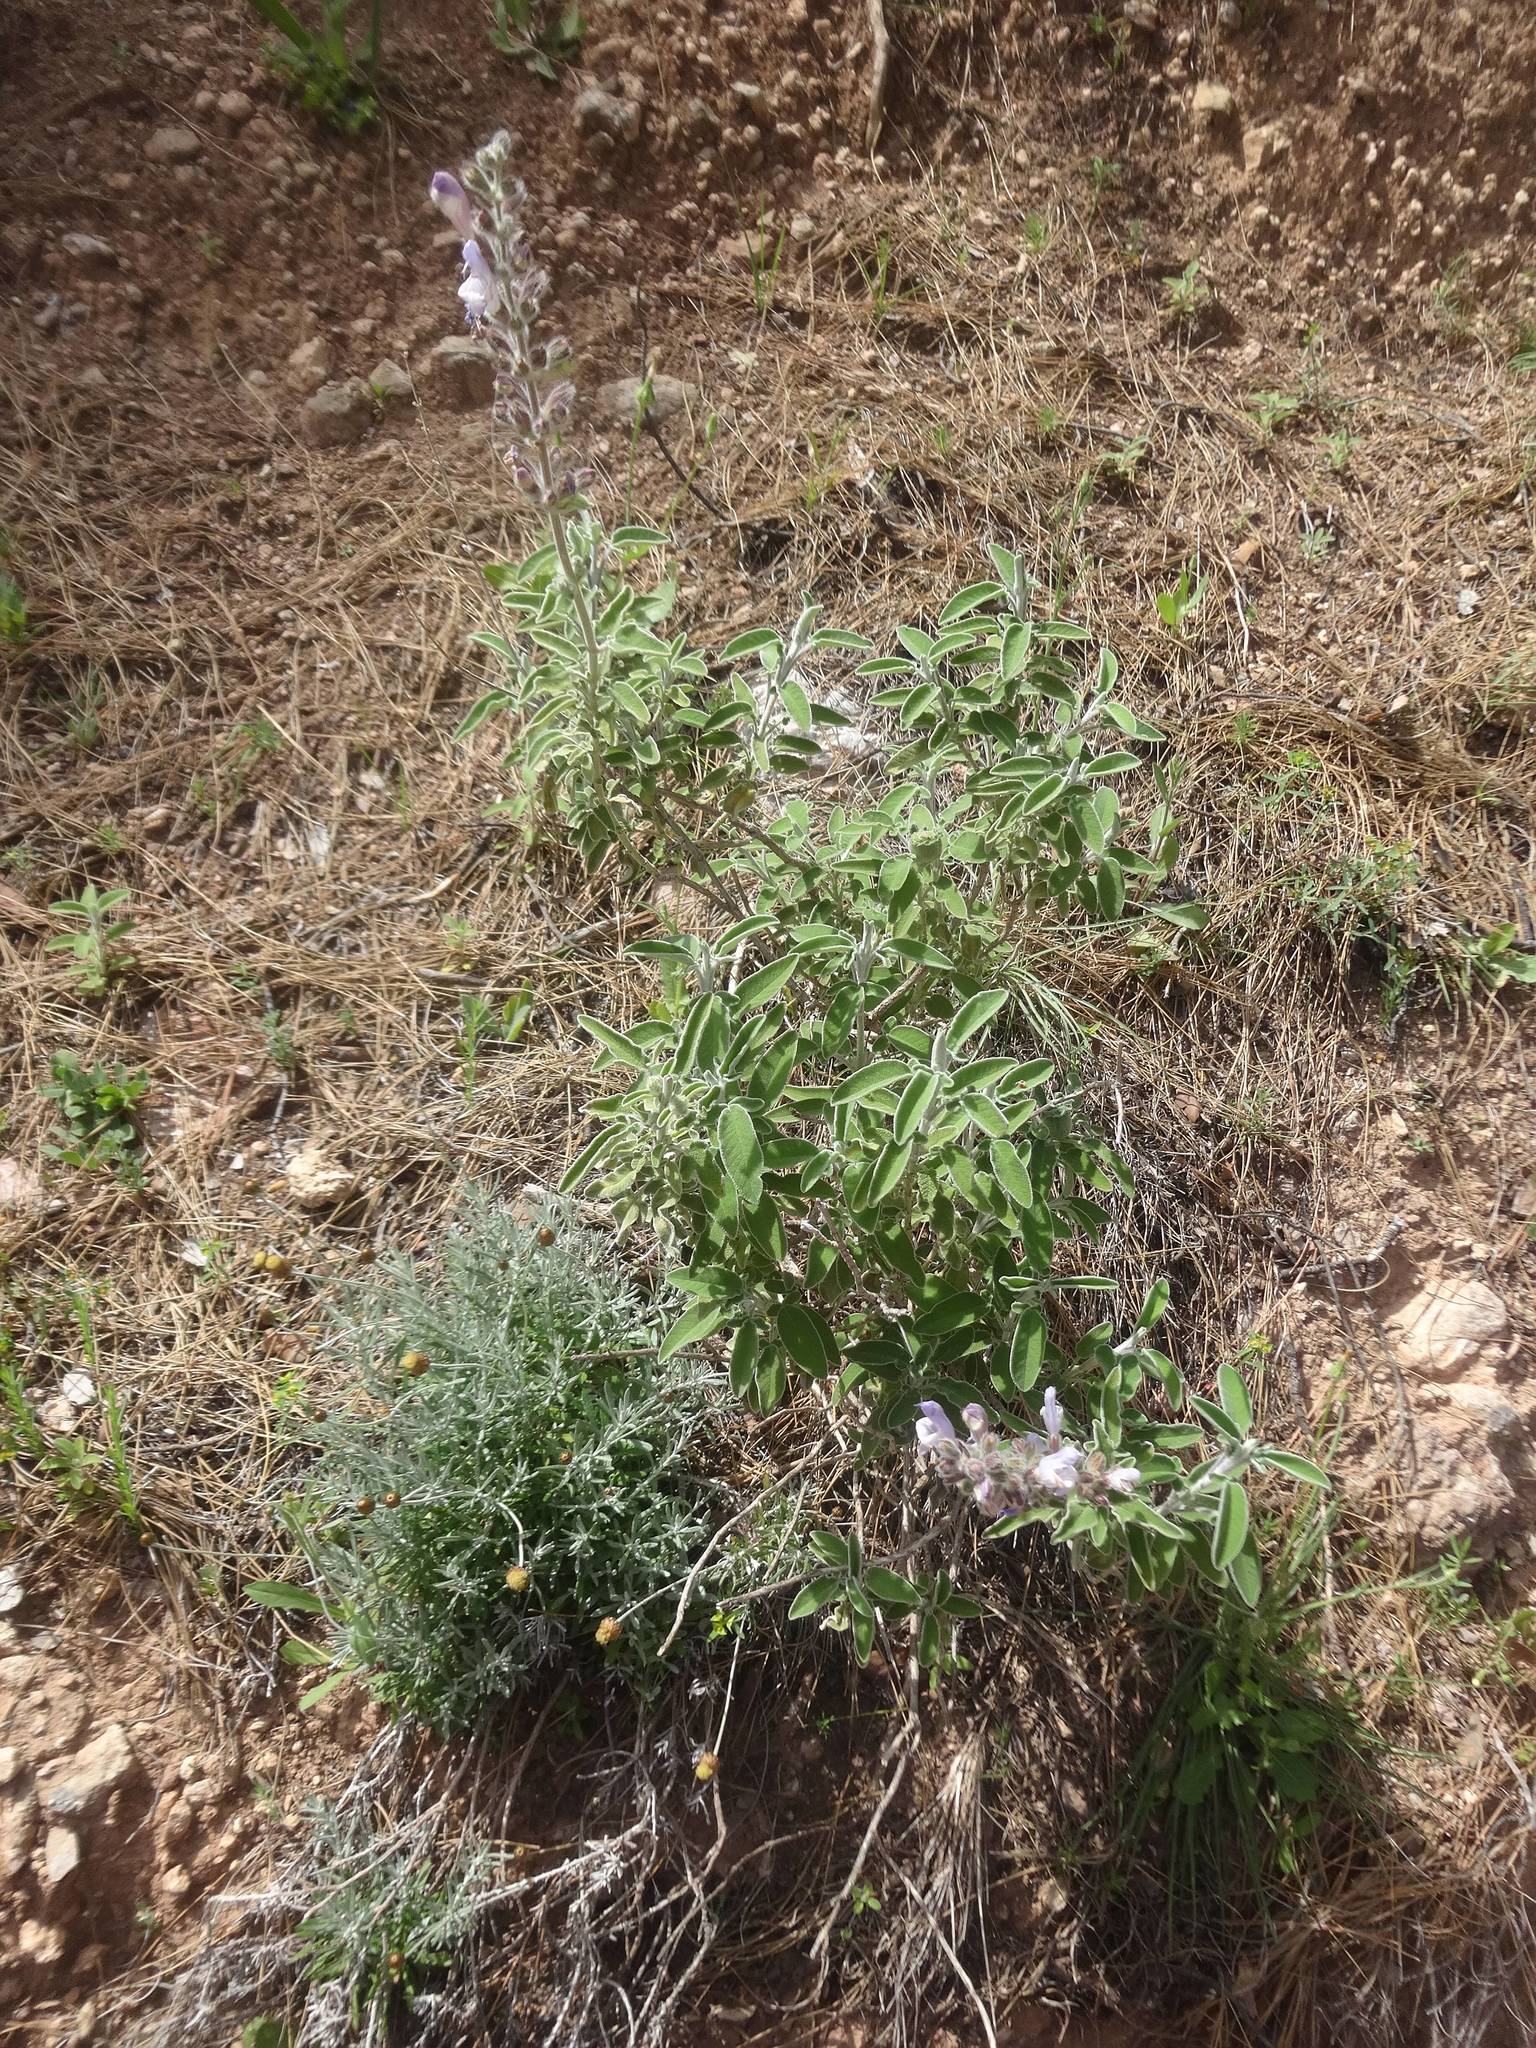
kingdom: Plantae
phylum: Tracheophyta
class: Magnoliopsida
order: Lamiales
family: Lamiaceae
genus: Salvia
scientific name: Salvia fruticosa
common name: Greek sage
